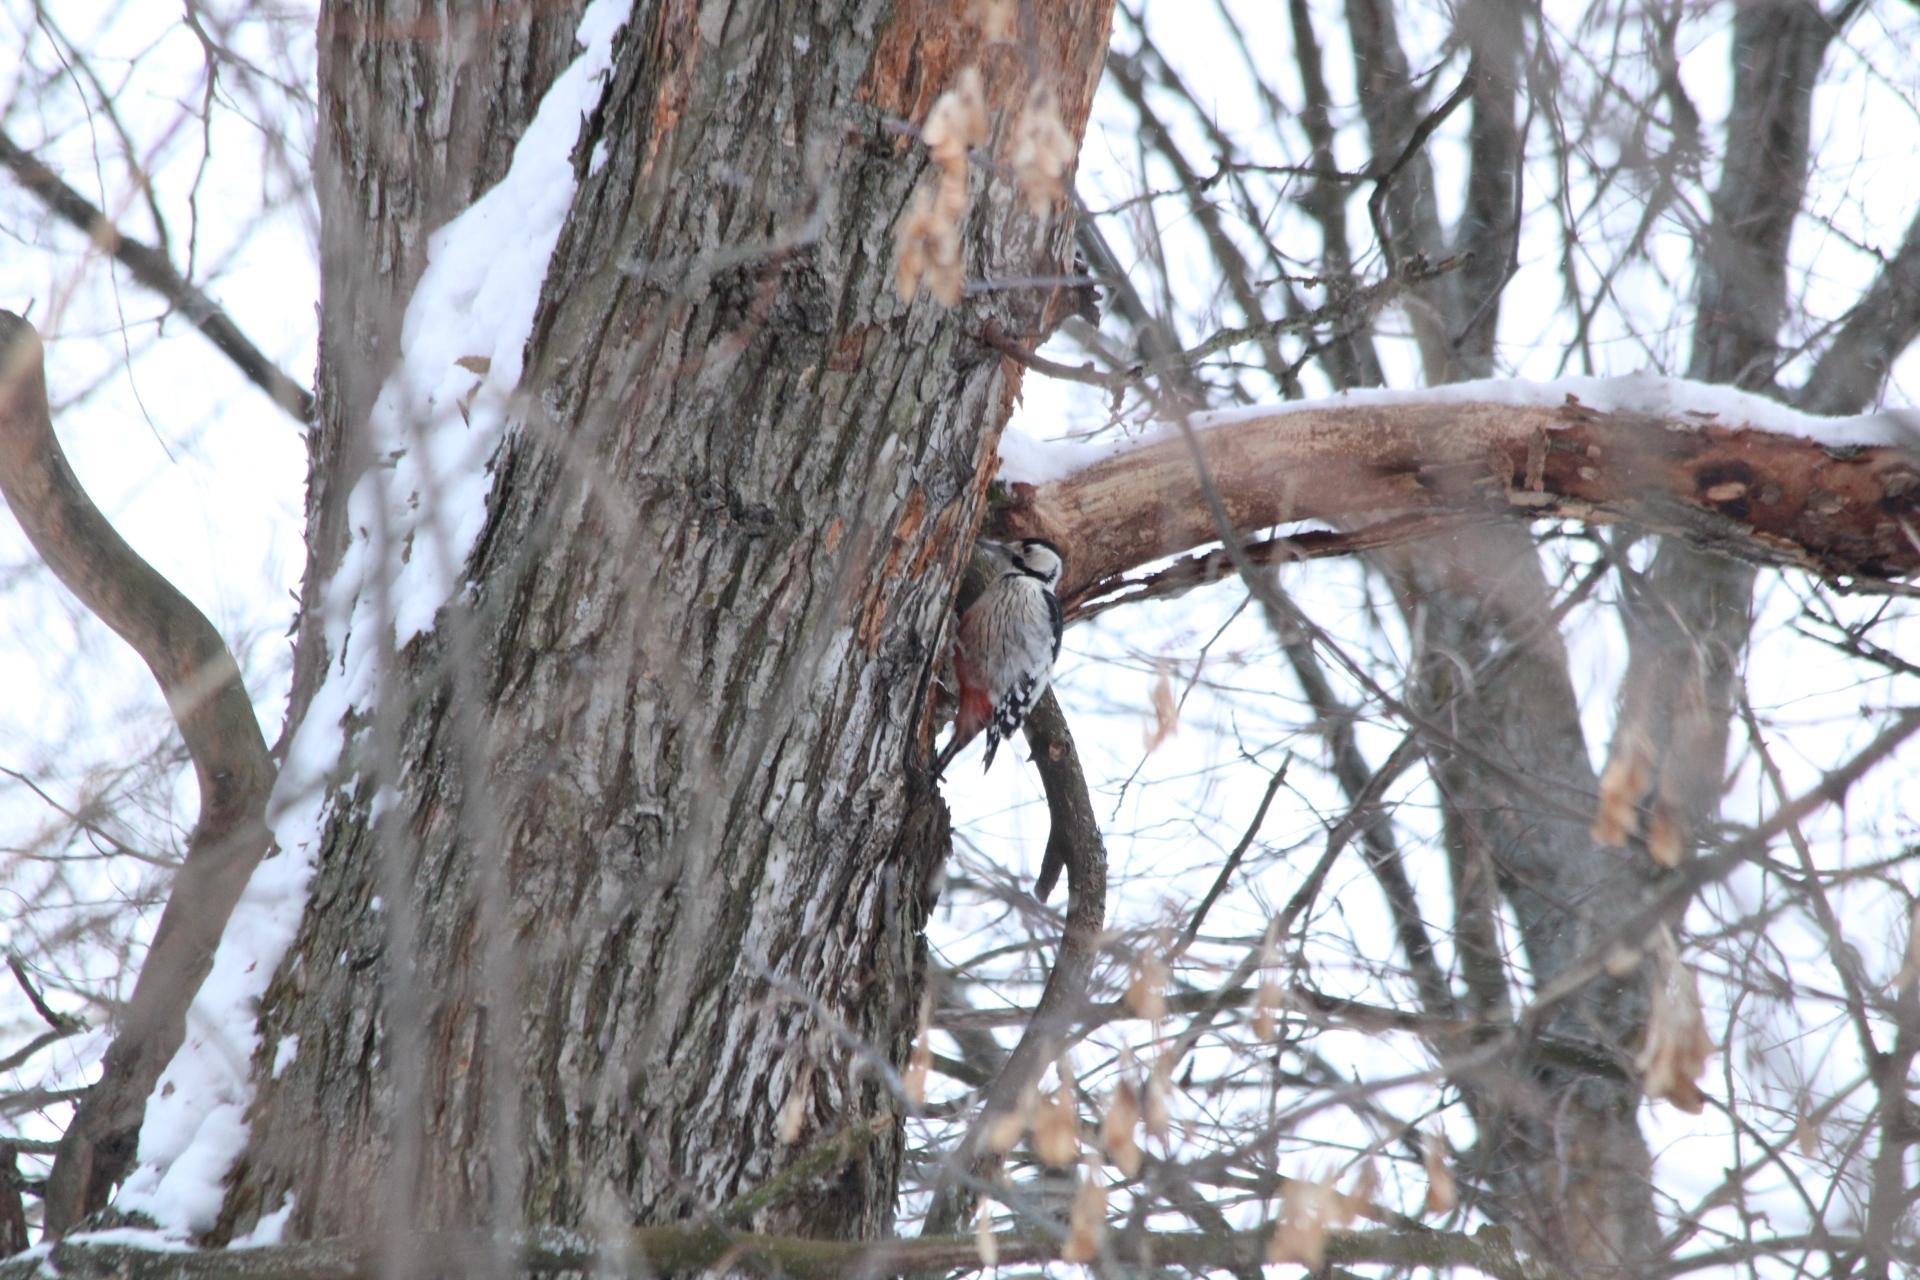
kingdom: Animalia
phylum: Chordata
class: Aves
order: Piciformes
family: Picidae
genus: Dendrocopos
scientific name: Dendrocopos leucotos
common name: White-backed woodpecker
